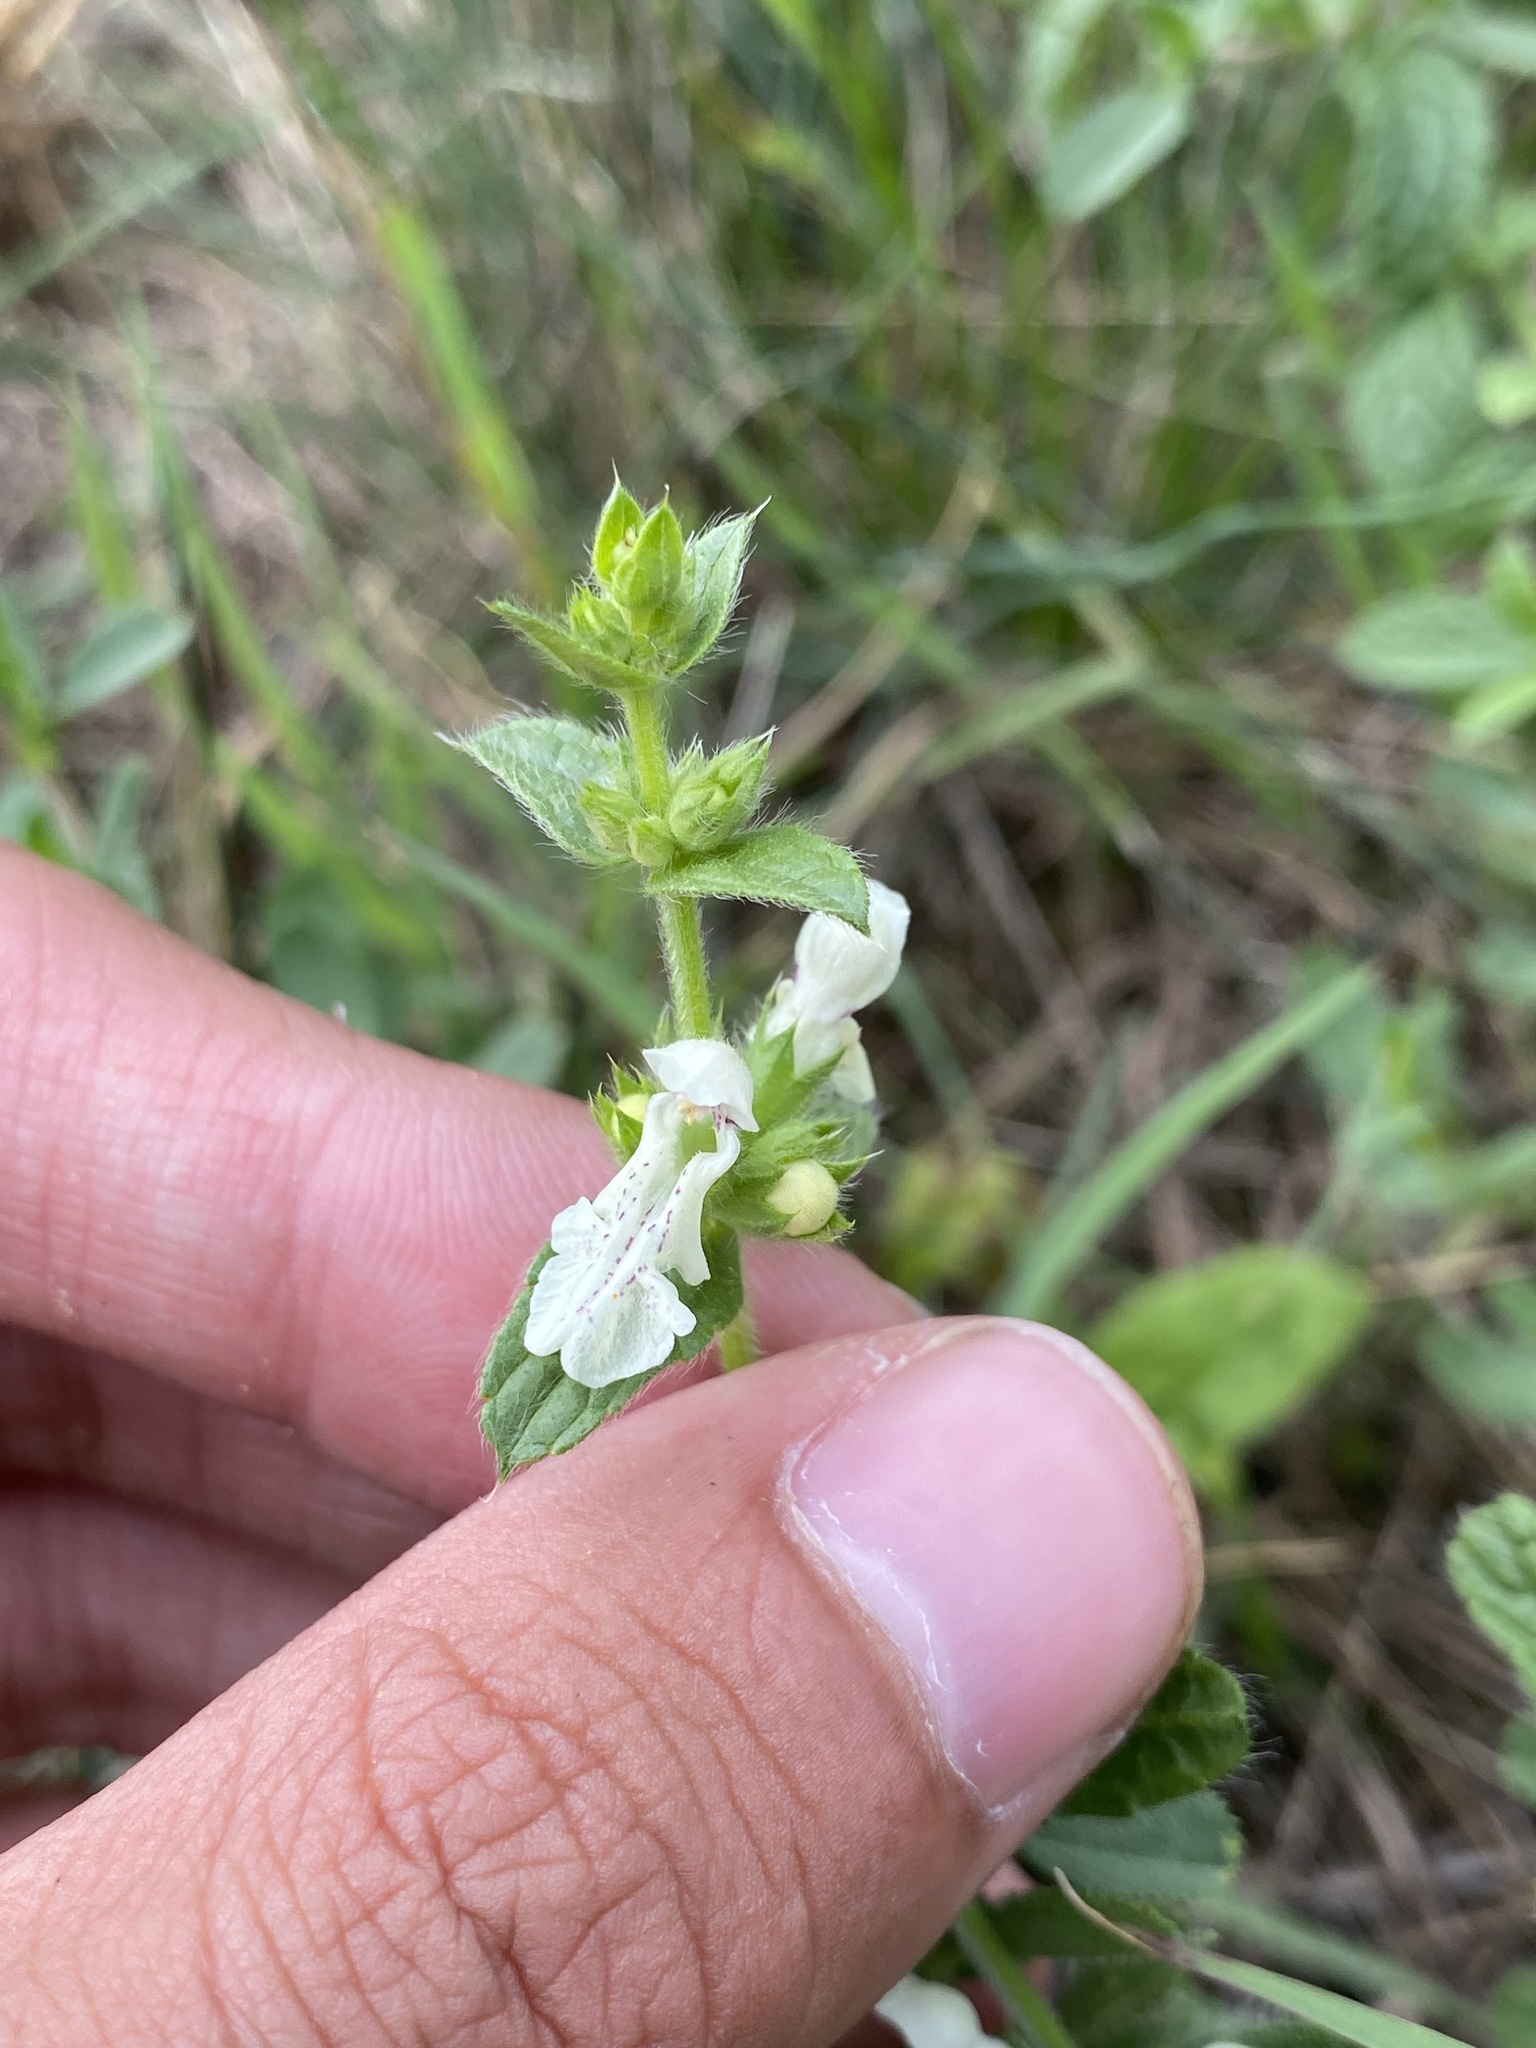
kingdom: Plantae
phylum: Tracheophyta
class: Magnoliopsida
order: Lamiales
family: Lamiaceae
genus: Stachys
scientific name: Stachys recta
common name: Perennial yellow-woundwort
